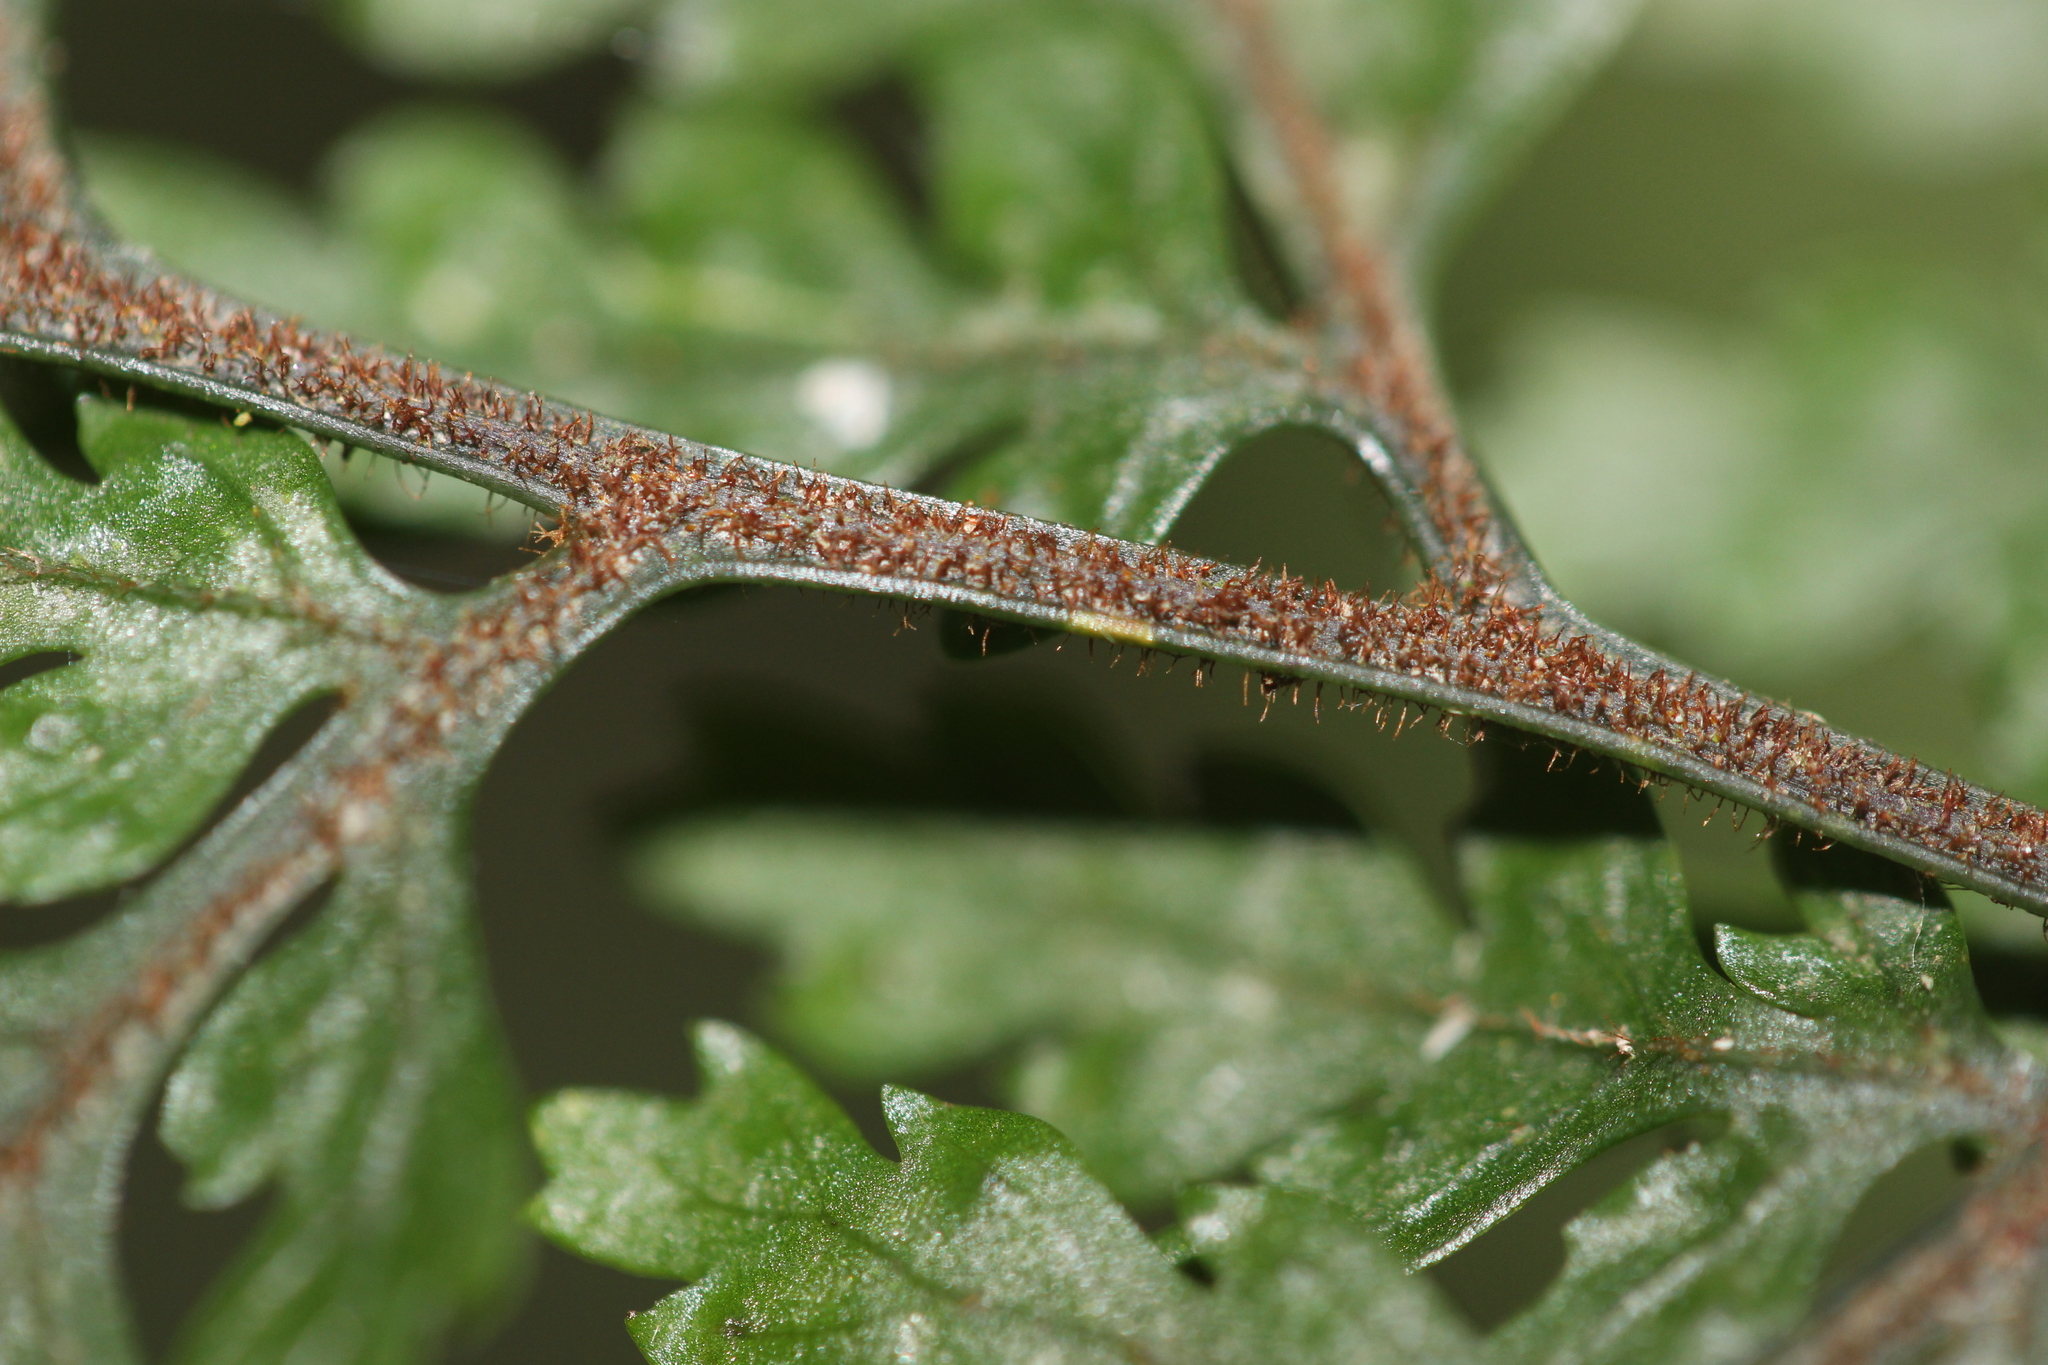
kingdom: Plantae
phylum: Tracheophyta
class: Polypodiopsida
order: Polypodiales
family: Dryopteridaceae
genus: Parapolystichum
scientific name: Parapolystichum microsorum
